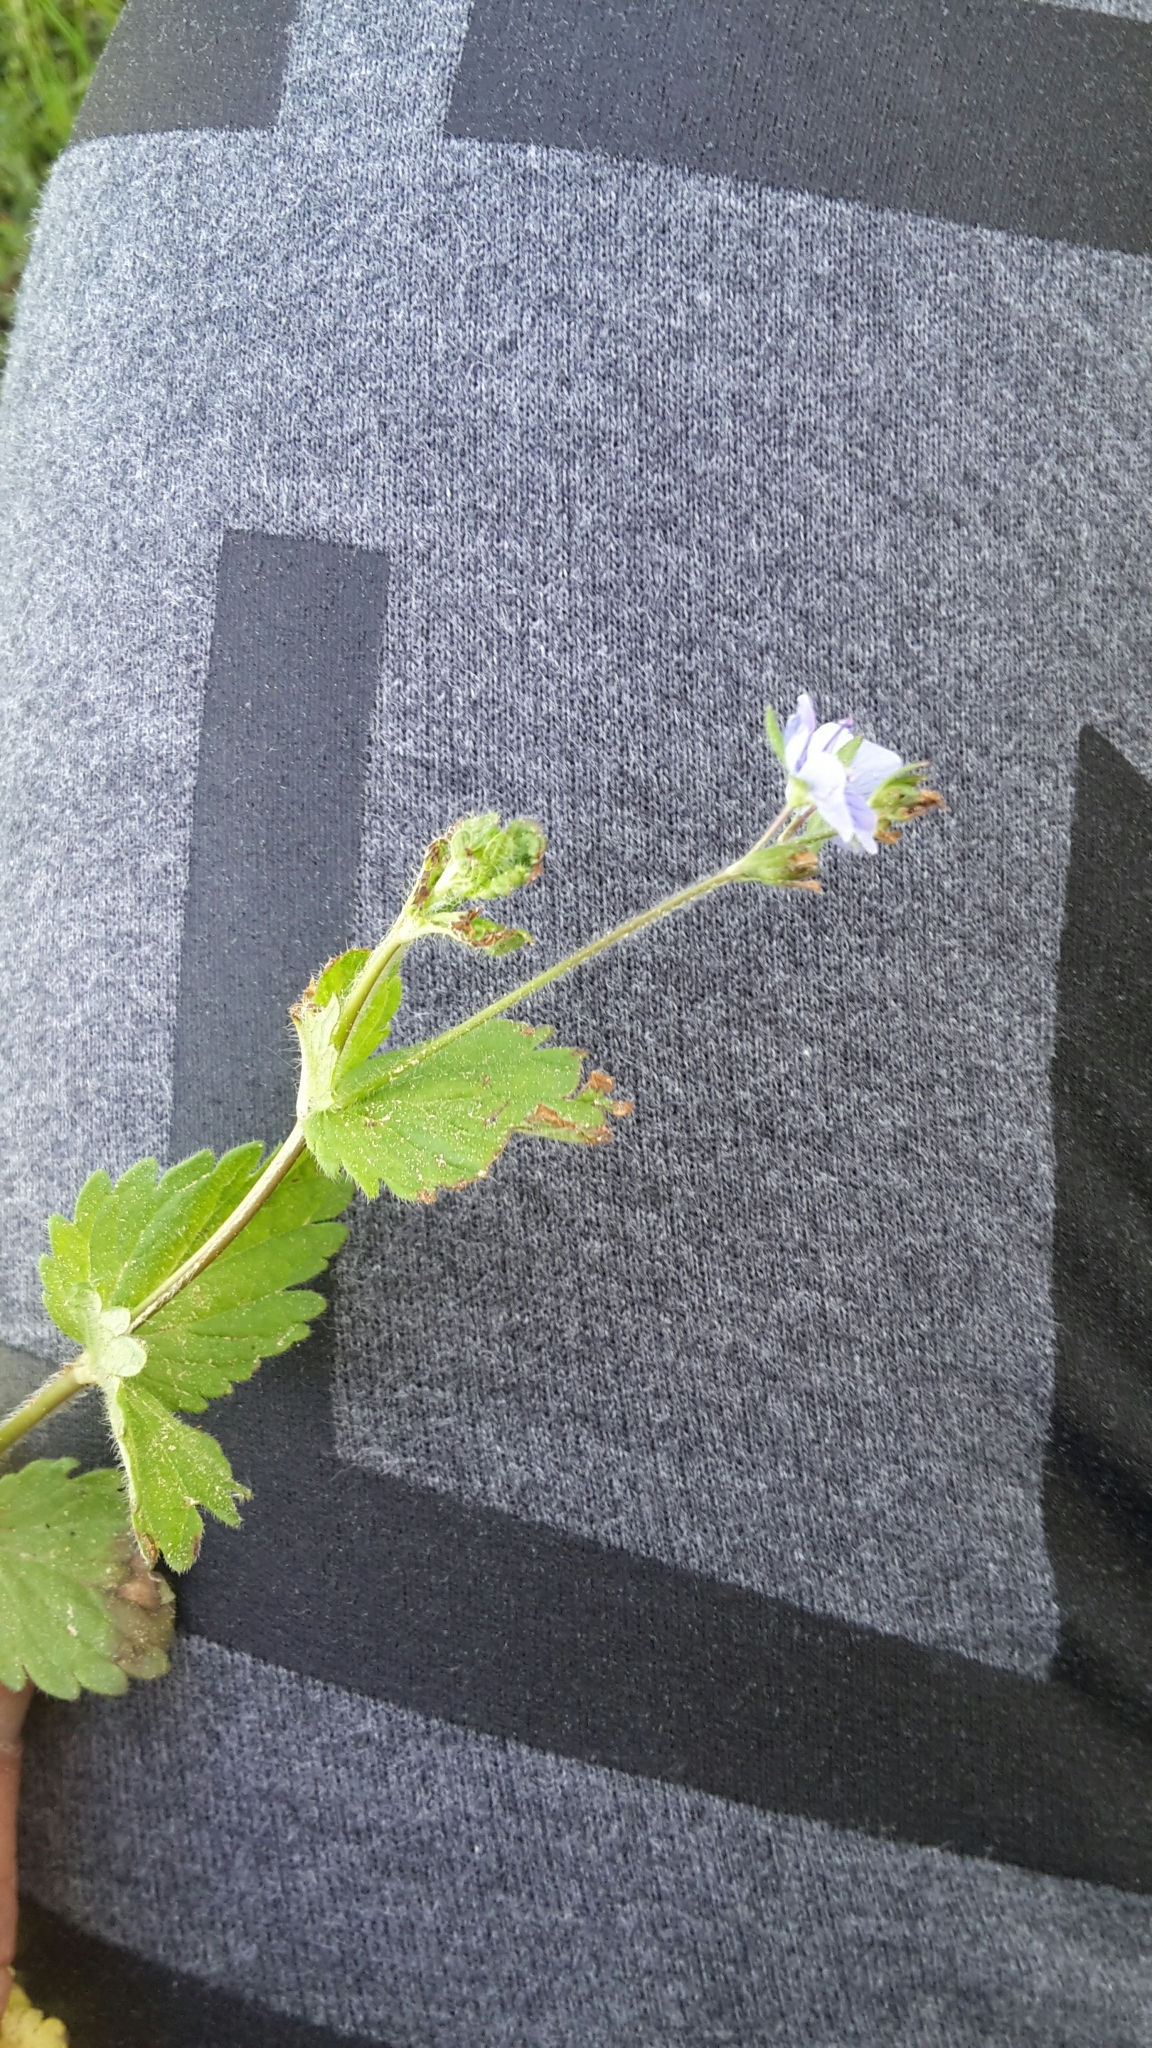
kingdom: Plantae
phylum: Tracheophyta
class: Magnoliopsida
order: Lamiales
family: Plantaginaceae
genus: Veronica
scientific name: Veronica chamaedrys
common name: Germander speedwell
